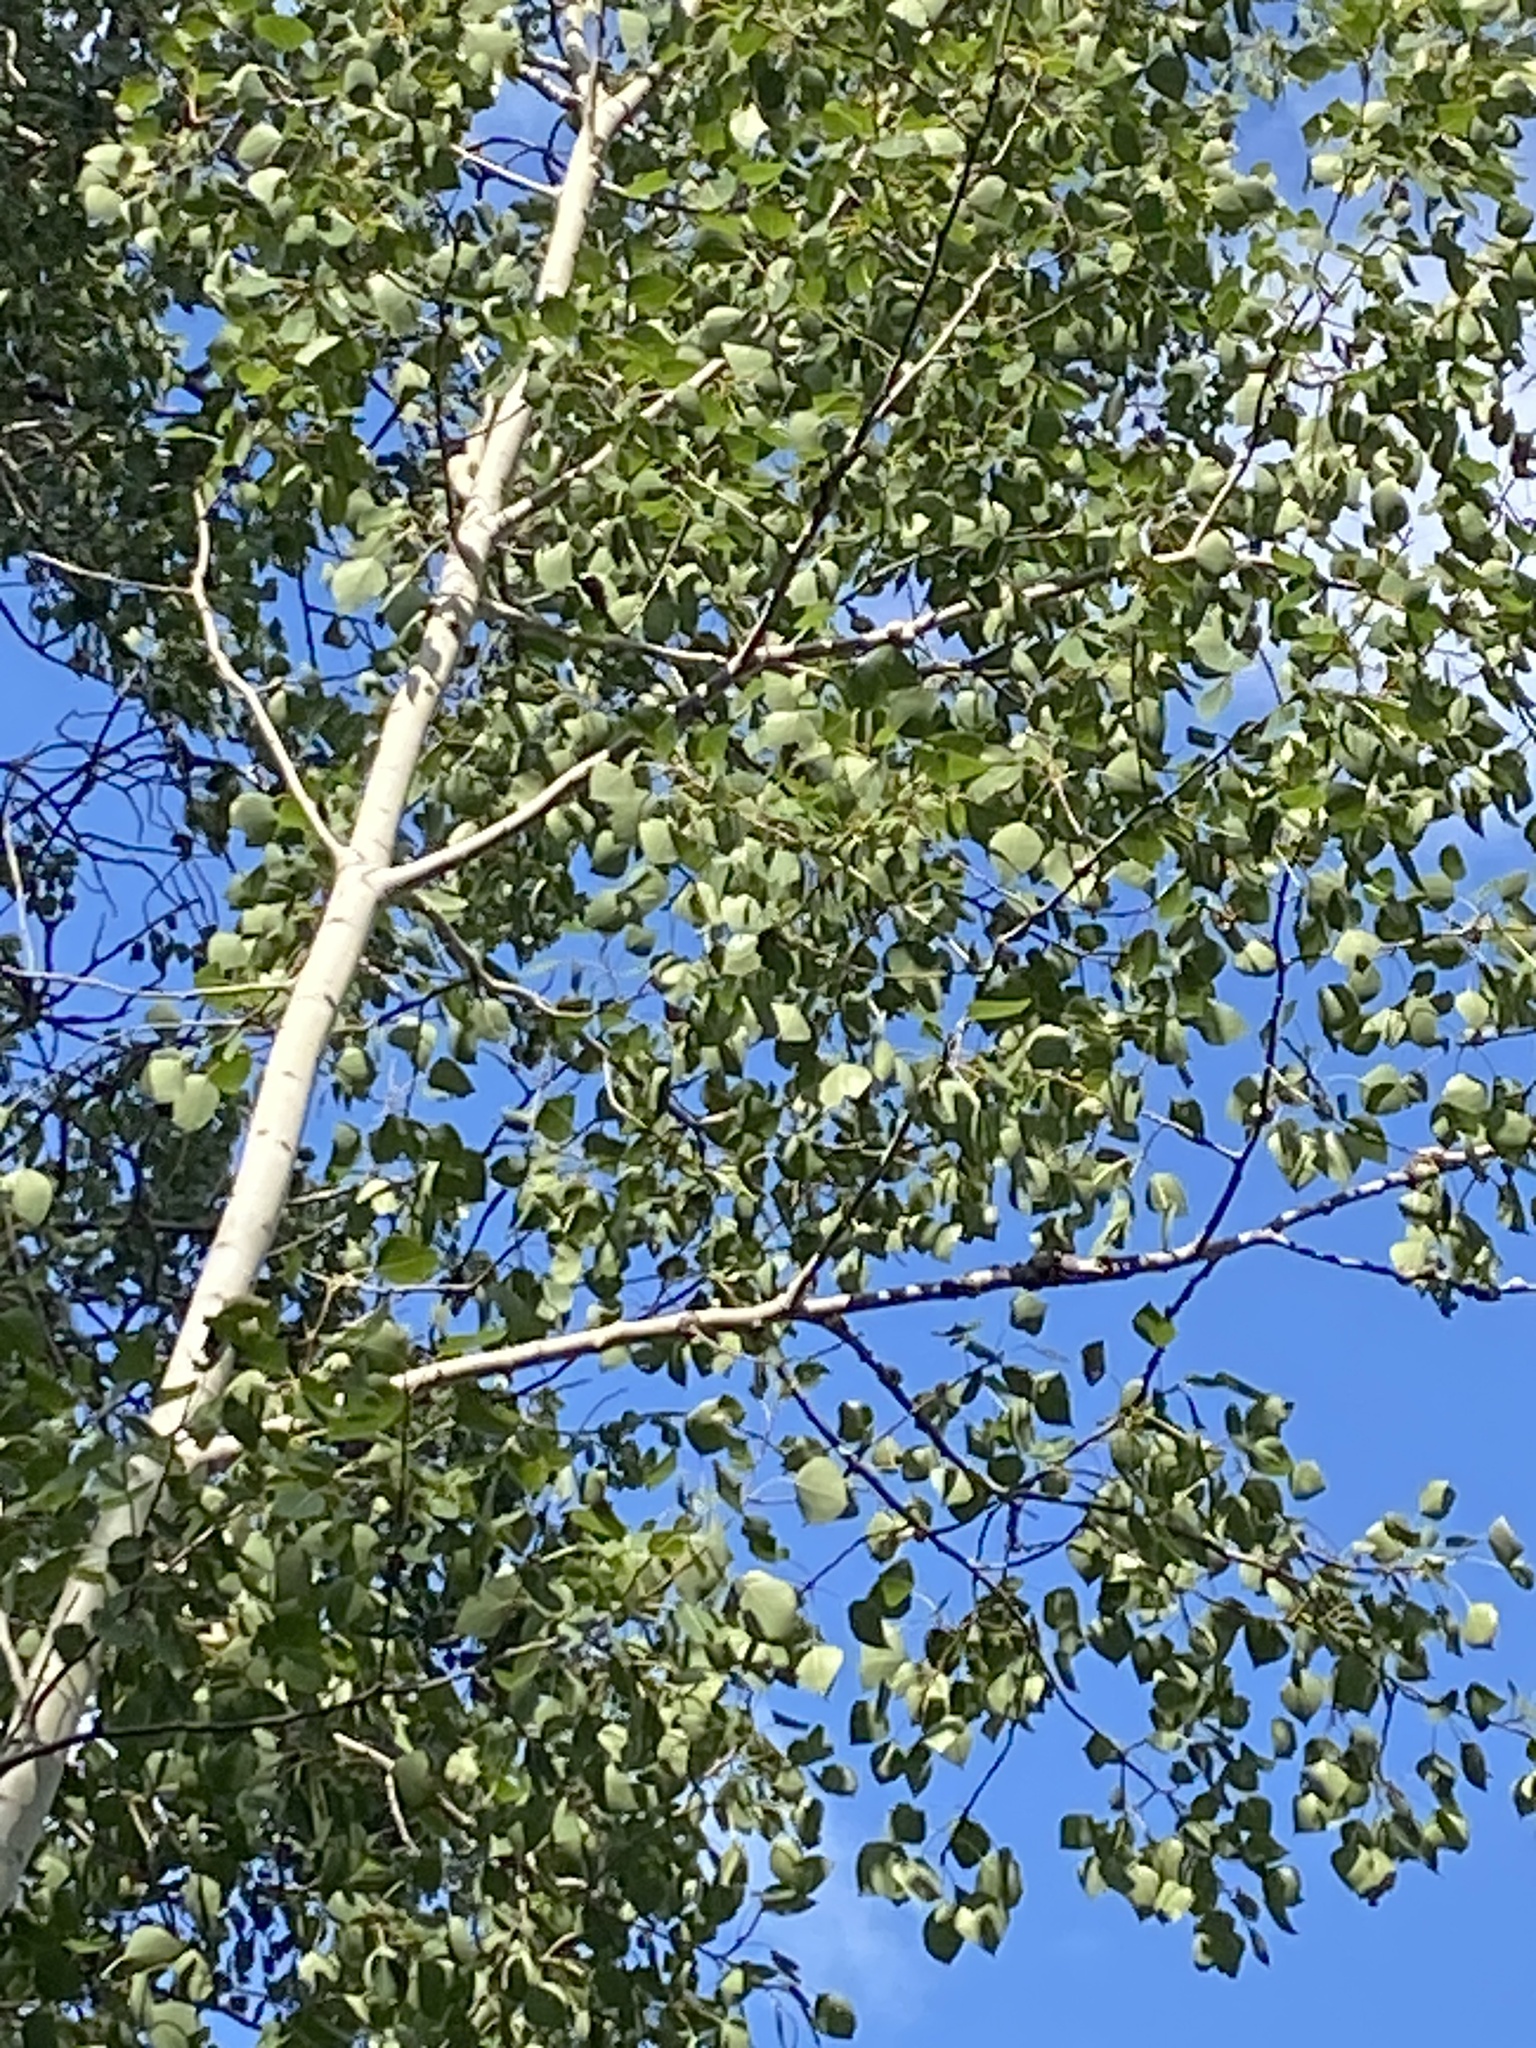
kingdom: Plantae
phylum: Tracheophyta
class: Magnoliopsida
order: Malpighiales
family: Salicaceae
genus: Populus
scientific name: Populus tremuloides
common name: Quaking aspen
